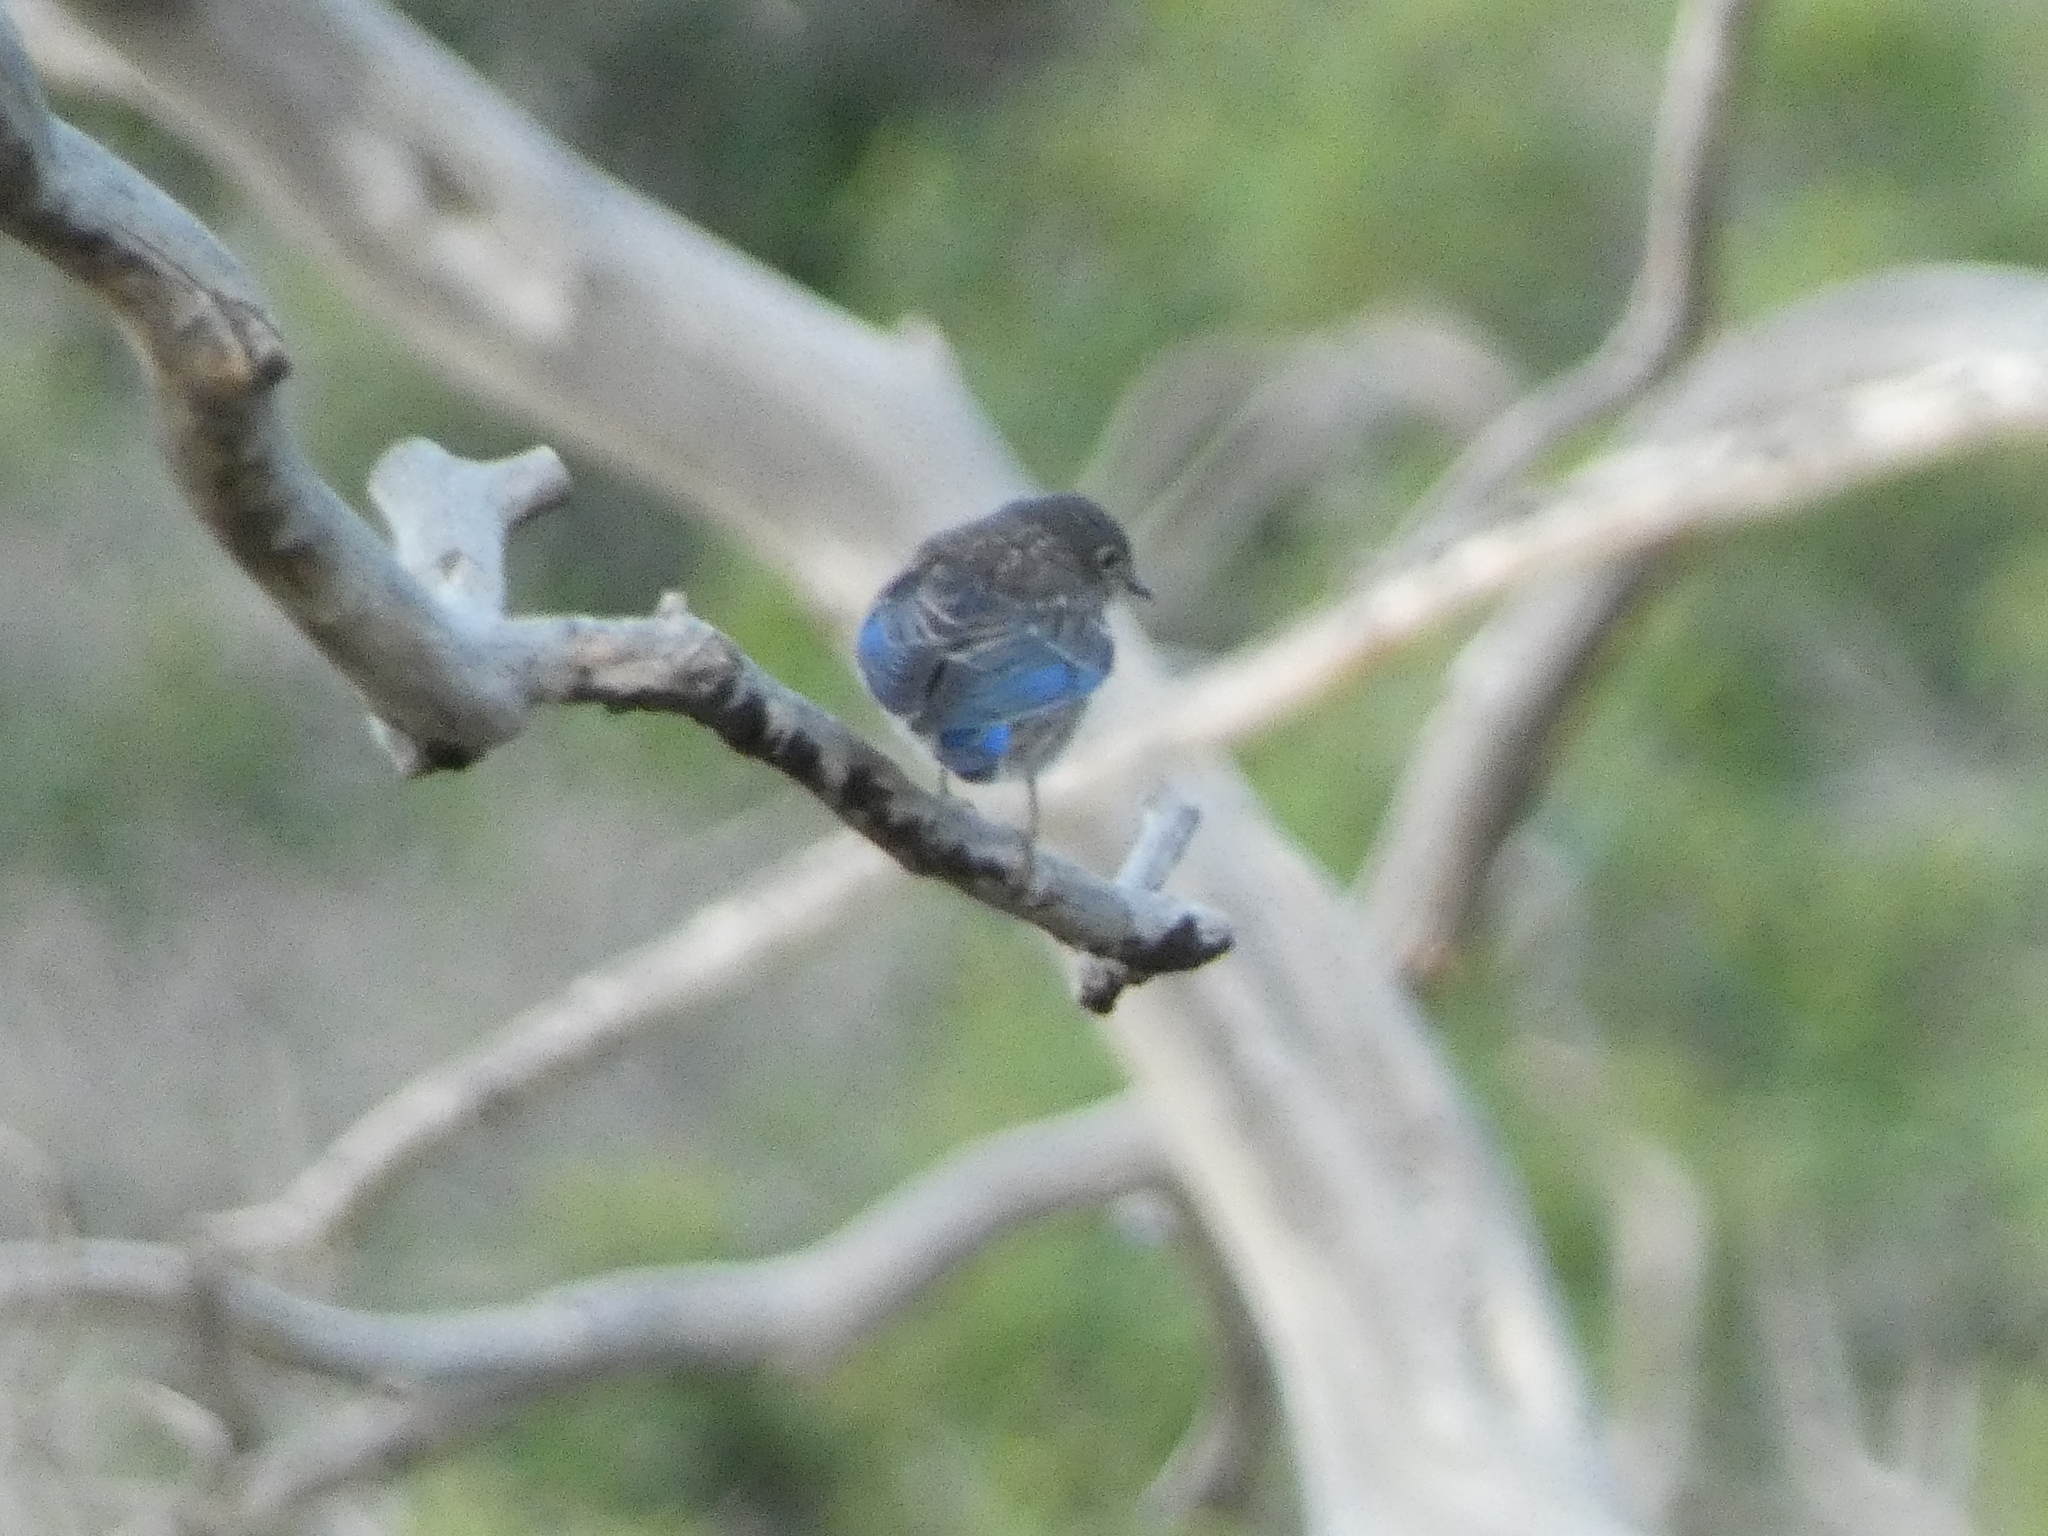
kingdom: Animalia
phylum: Chordata
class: Aves
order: Passeriformes
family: Turdidae
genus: Sialia
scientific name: Sialia mexicana
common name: Western bluebird
